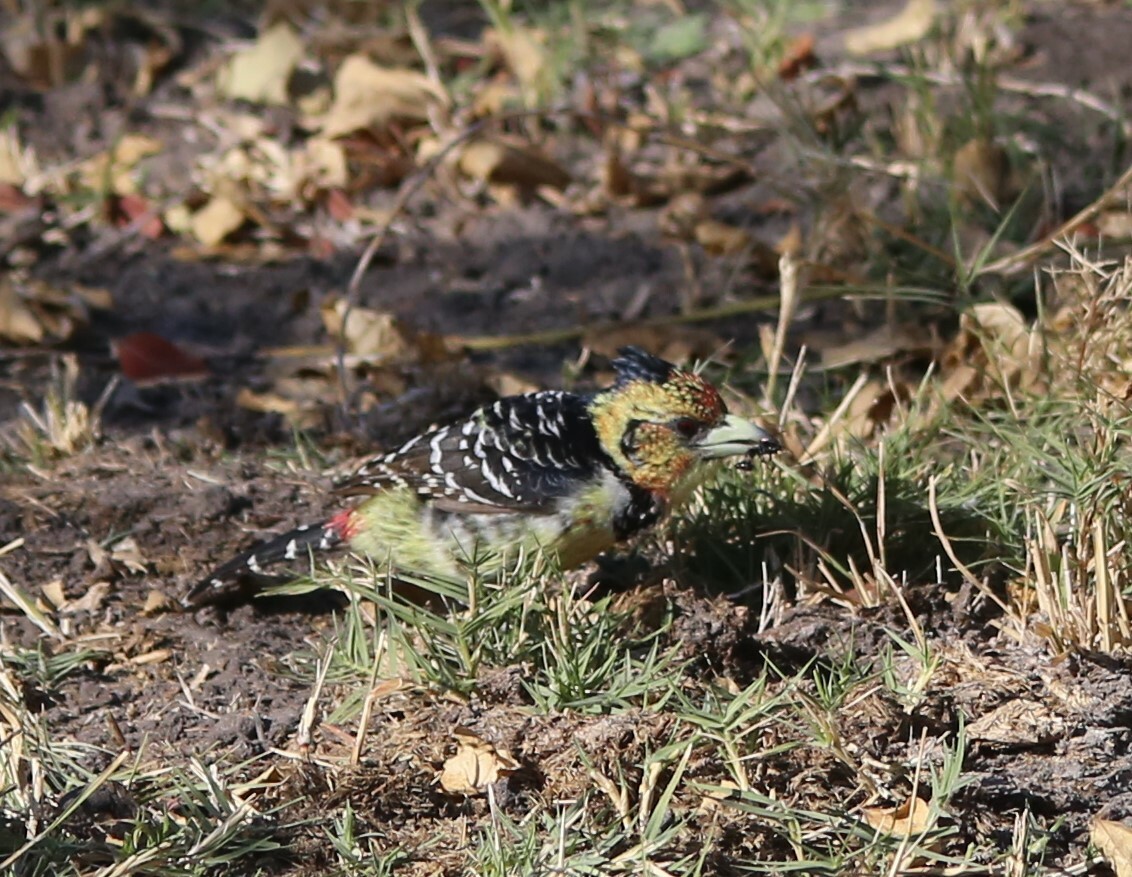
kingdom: Animalia
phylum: Chordata
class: Aves
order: Piciformes
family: Lybiidae
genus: Trachyphonus
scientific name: Trachyphonus vaillantii
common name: Crested barbet
